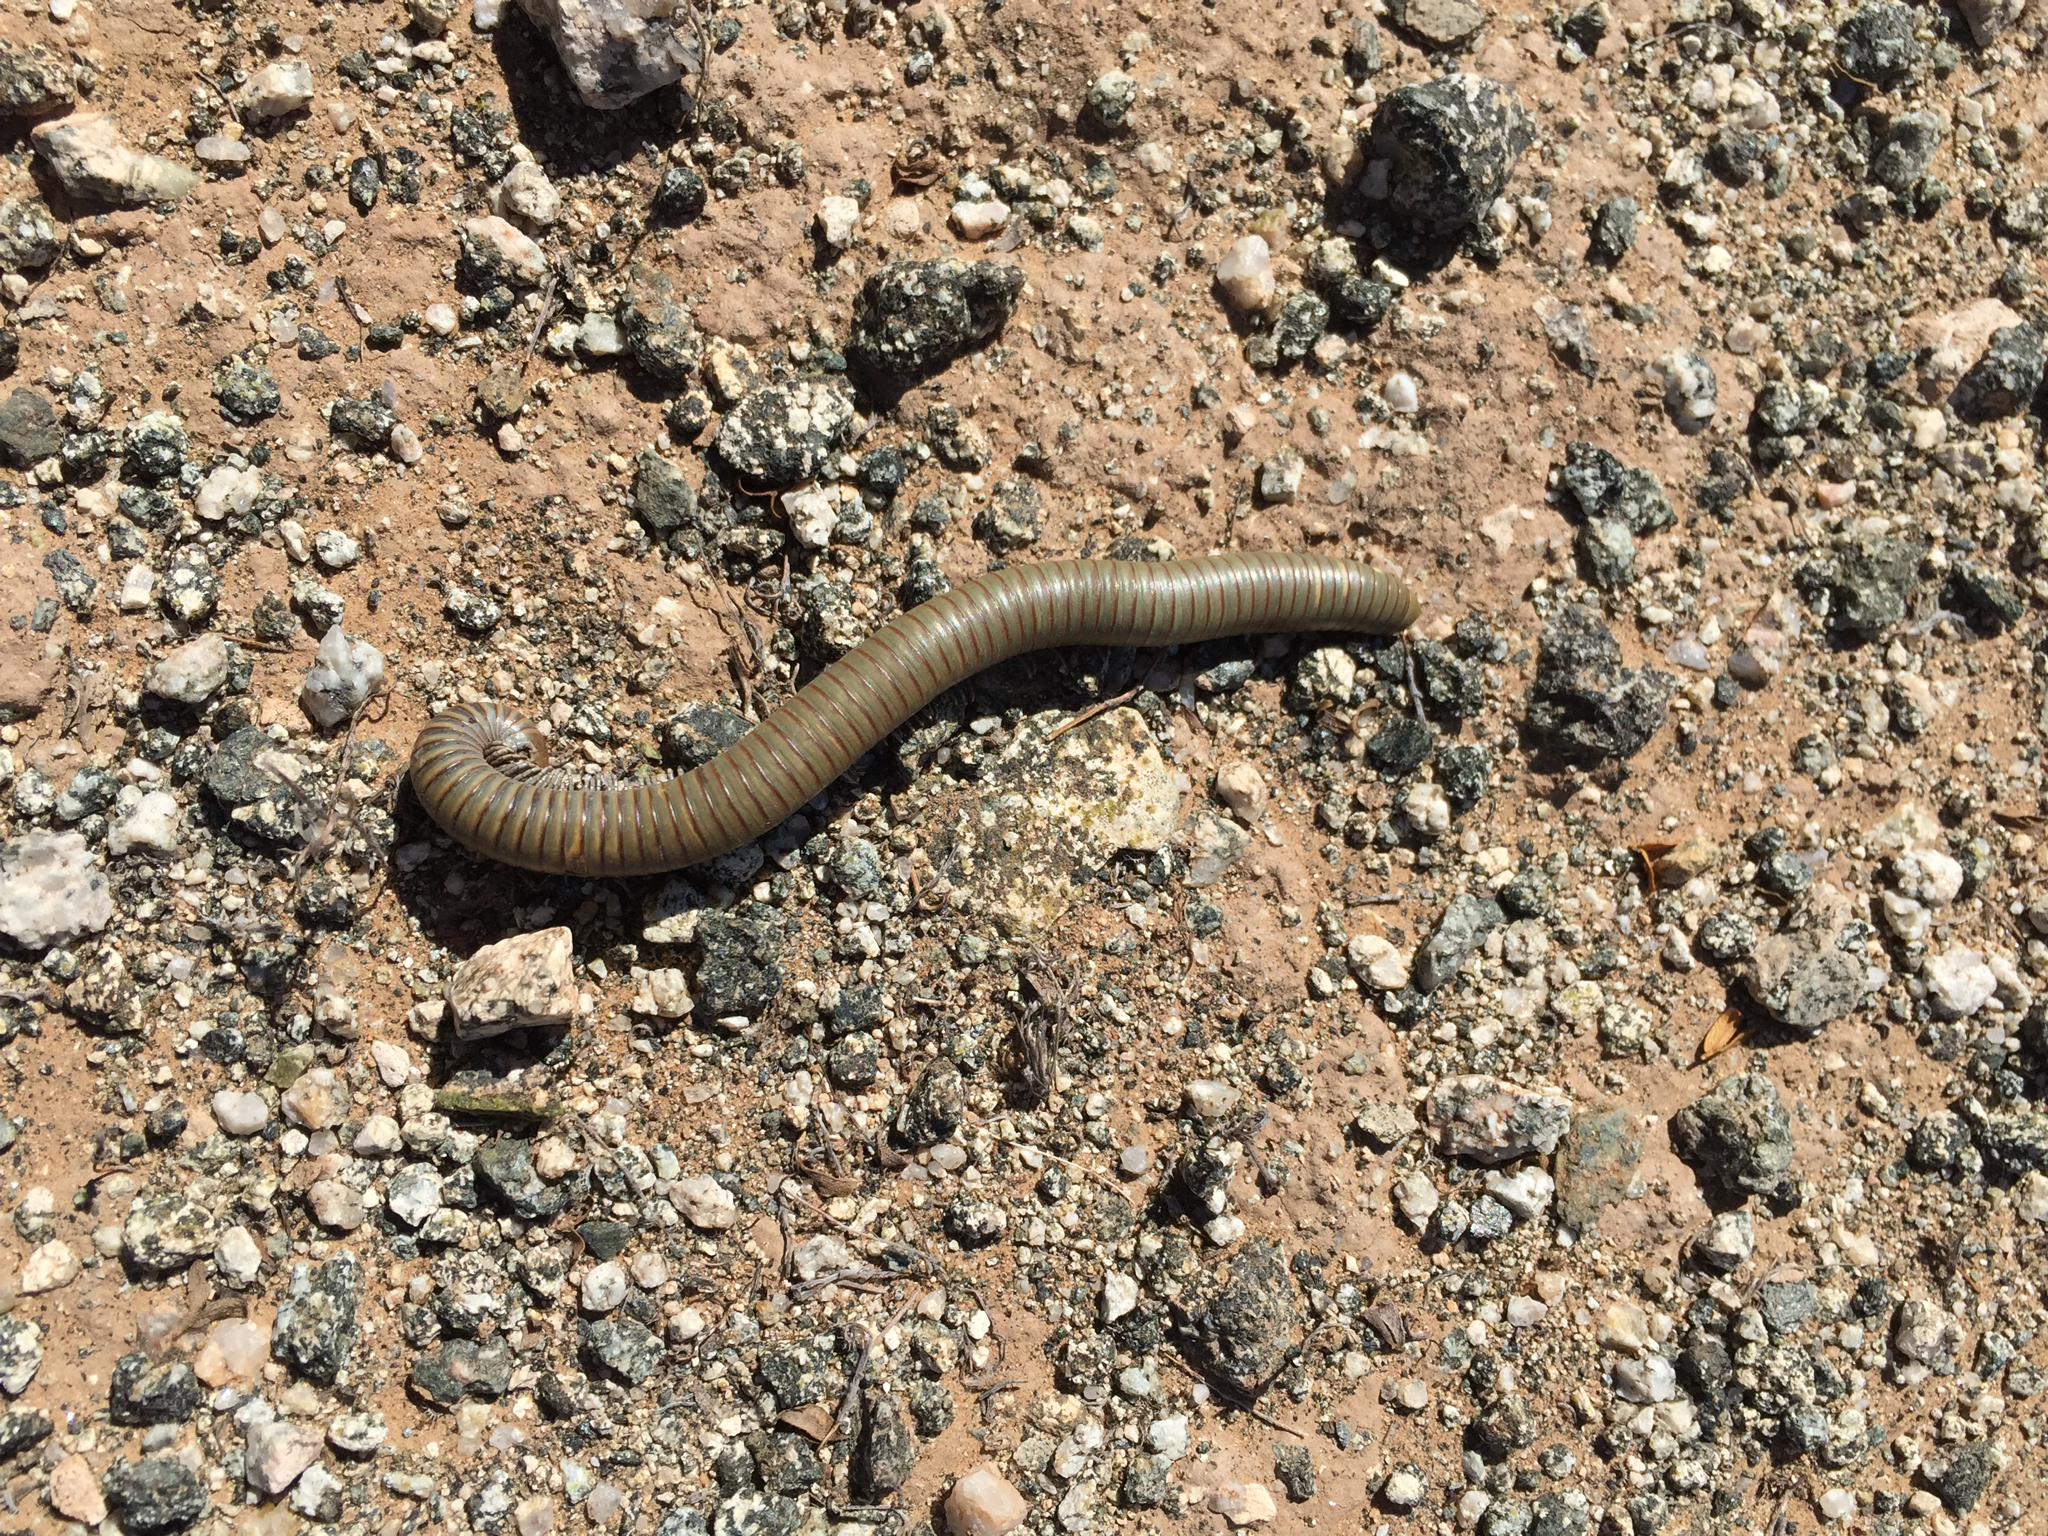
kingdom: Animalia
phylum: Arthropoda
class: Diplopoda
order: Spirostreptida
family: Spirostreptidae
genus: Orthoporus
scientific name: Orthoporus ornatus
